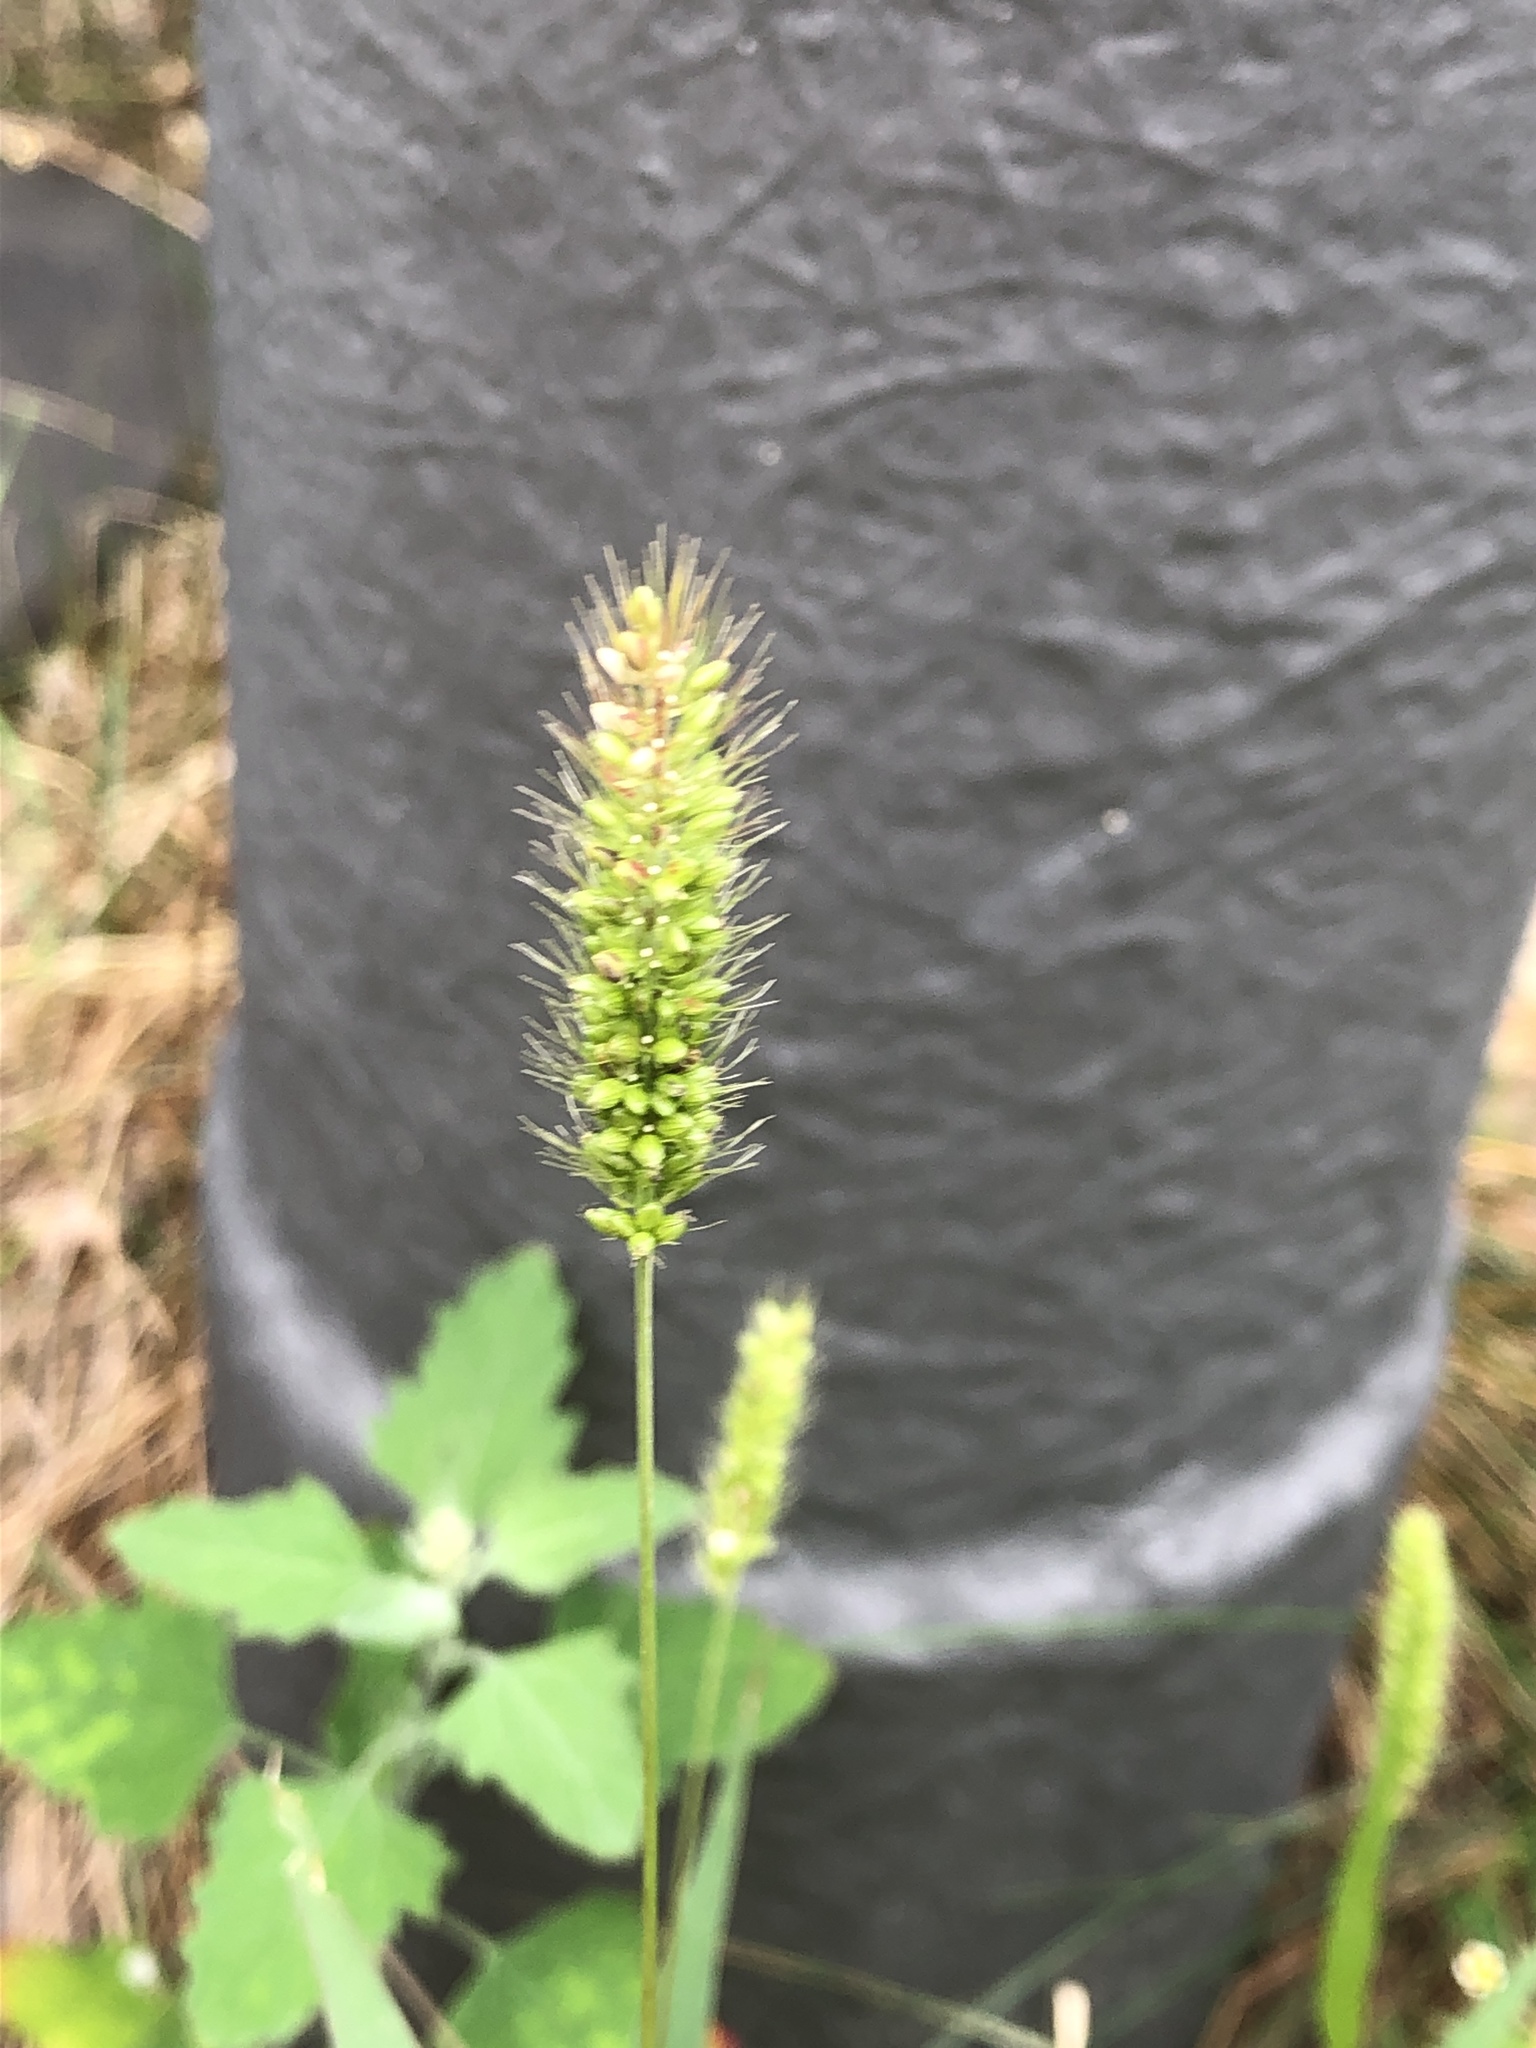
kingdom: Plantae
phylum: Tracheophyta
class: Liliopsida
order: Poales
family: Poaceae
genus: Setaria
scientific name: Setaria viridis
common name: Green bristlegrass
